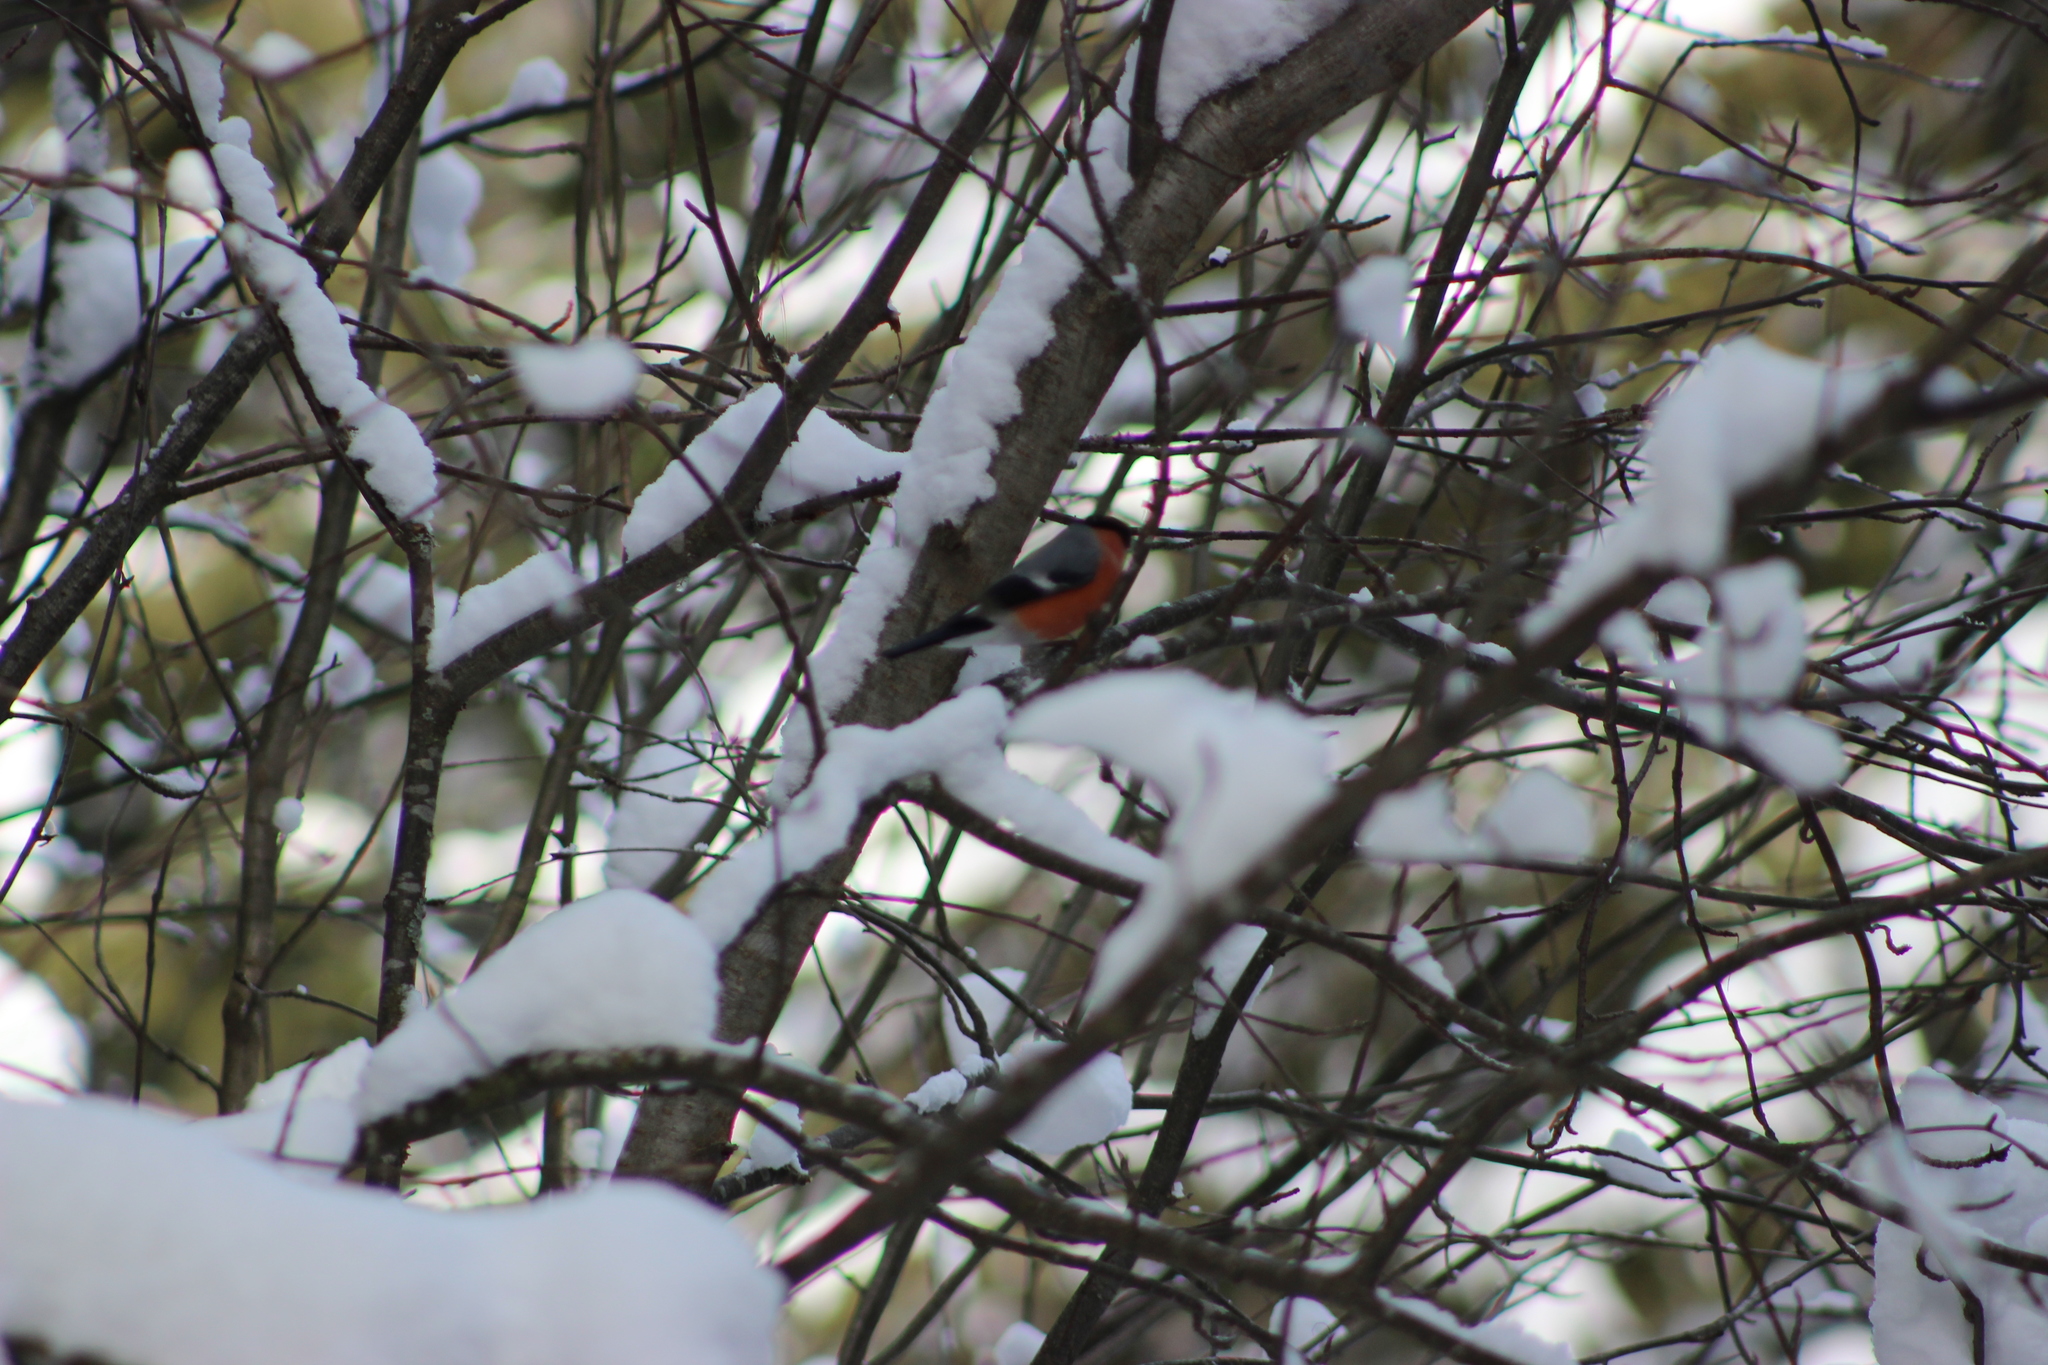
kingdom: Animalia
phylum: Chordata
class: Aves
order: Passeriformes
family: Fringillidae
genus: Pyrrhula
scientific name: Pyrrhula pyrrhula
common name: Eurasian bullfinch
